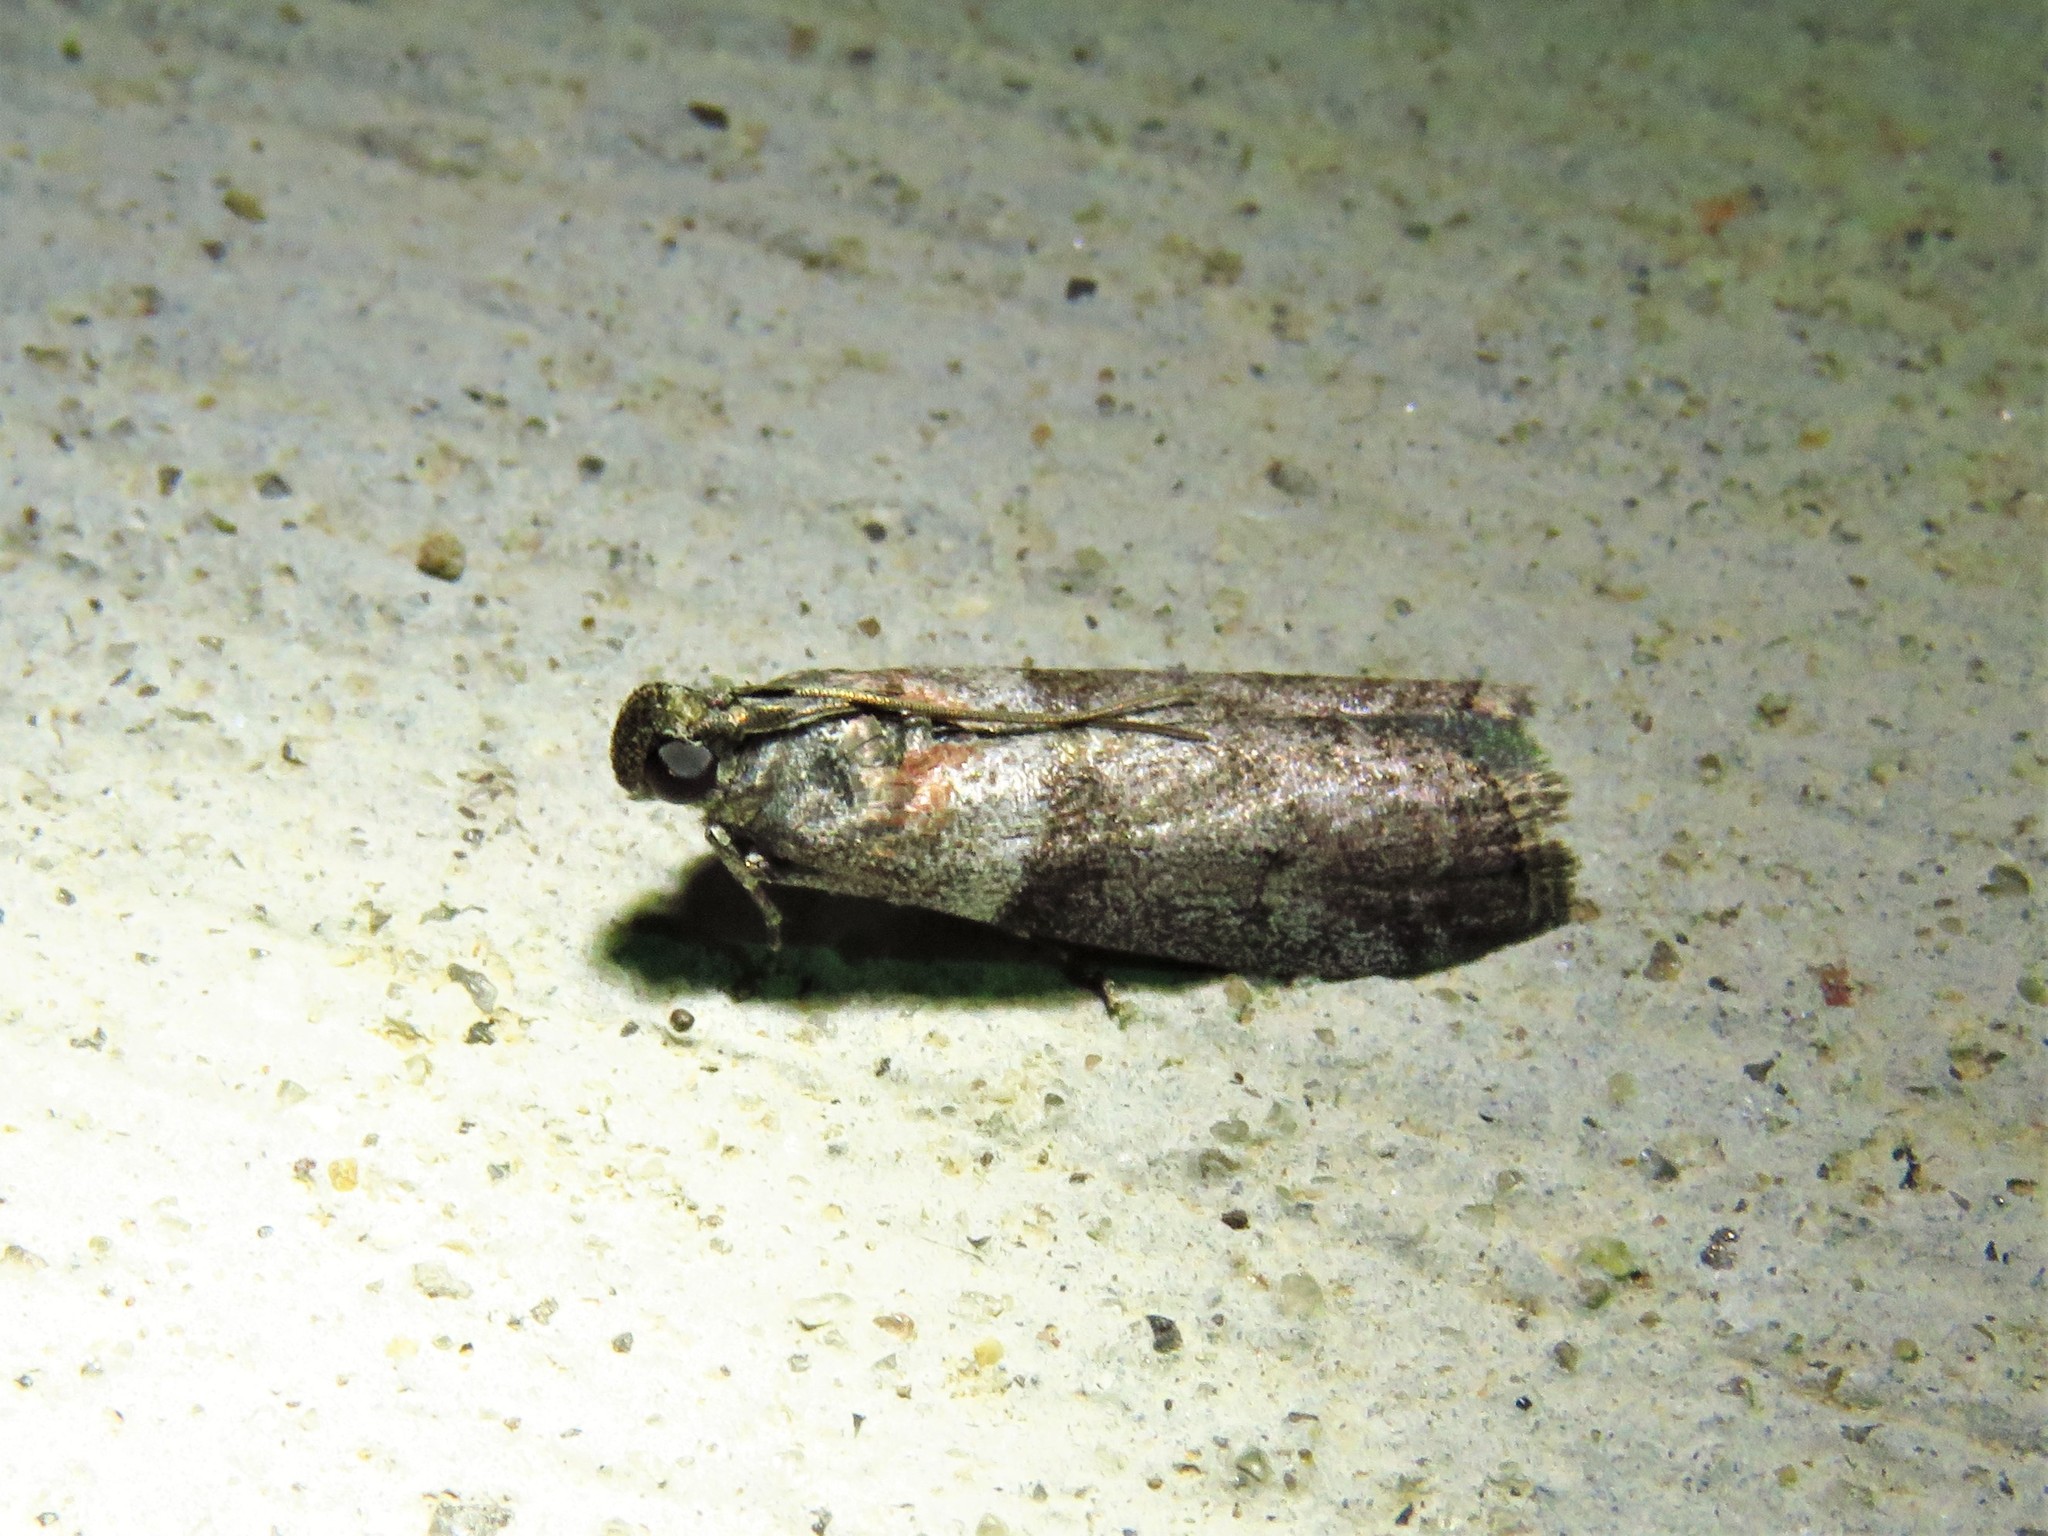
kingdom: Animalia
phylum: Arthropoda
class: Insecta
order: Lepidoptera
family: Pyralidae
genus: Sciota
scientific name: Sciota subfuscella
